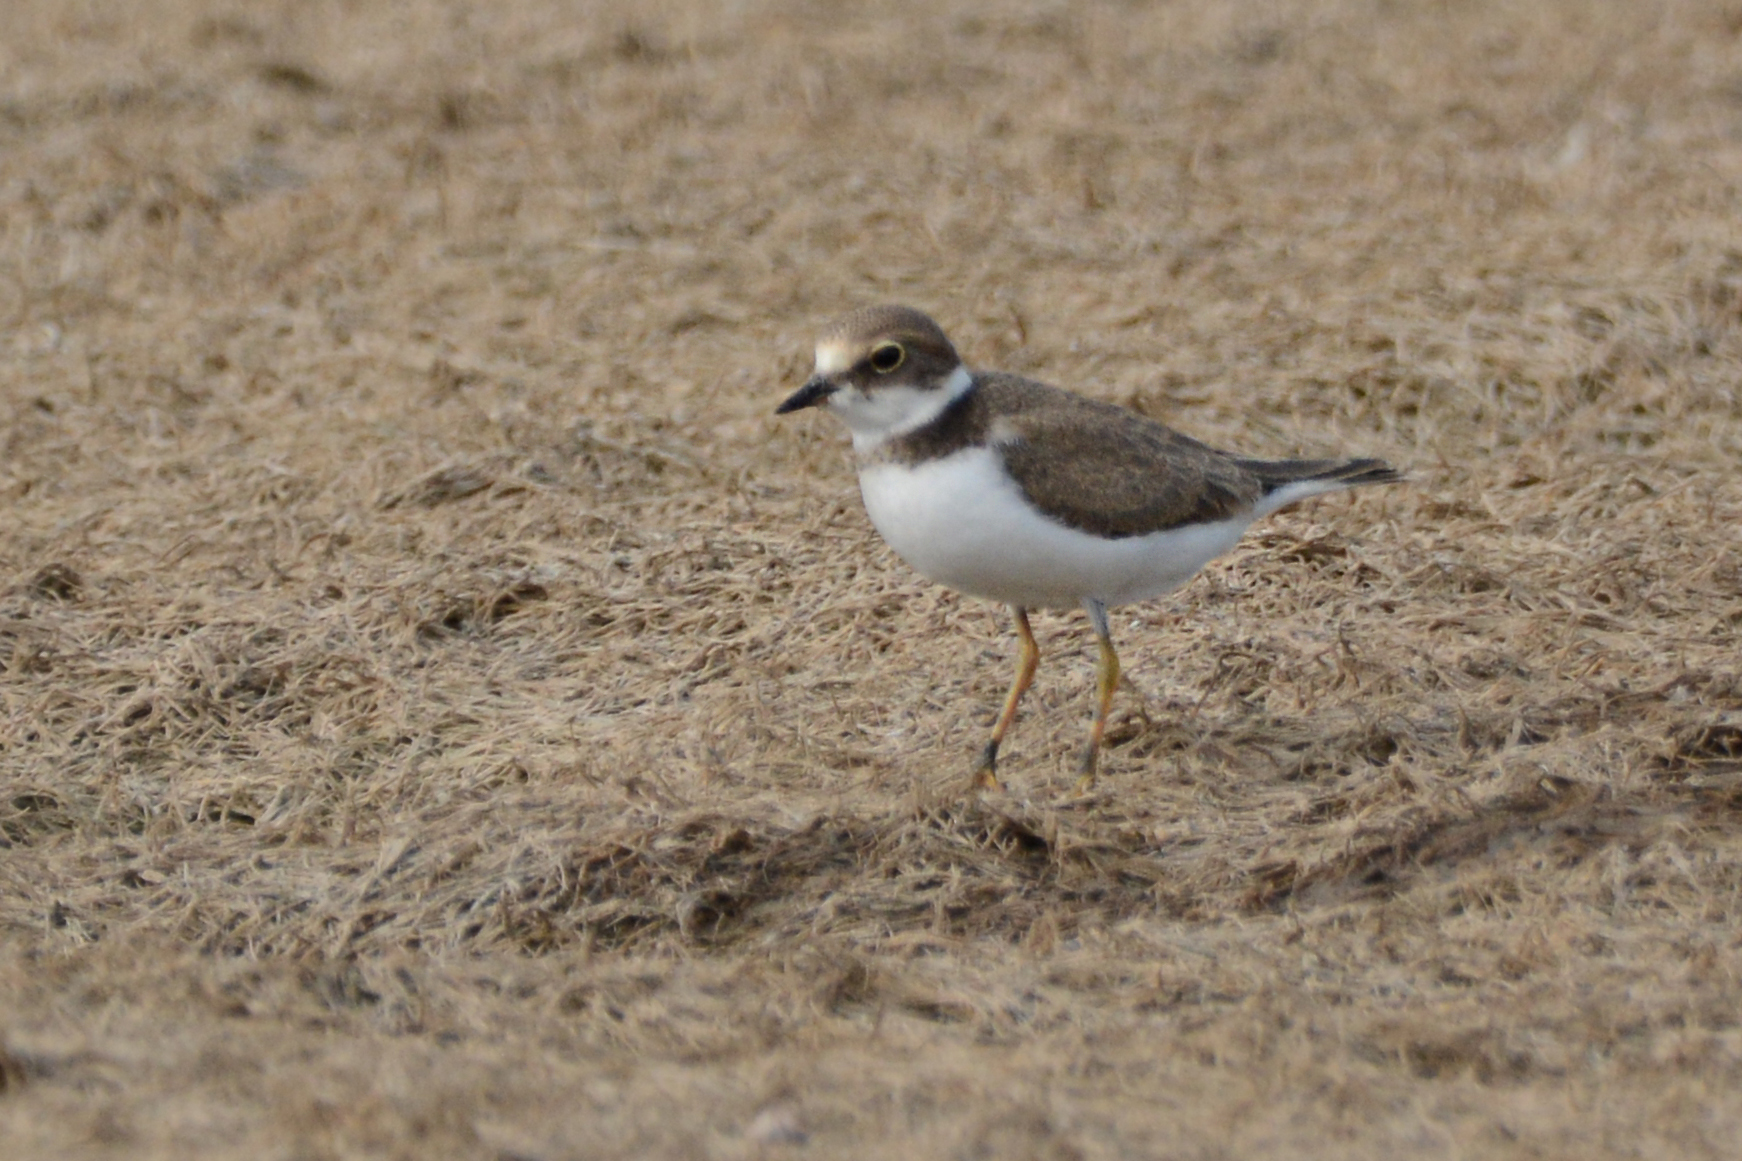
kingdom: Animalia
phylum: Chordata
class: Aves
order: Charadriiformes
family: Charadriidae
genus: Charadrius
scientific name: Charadrius dubius
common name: Little ringed plover
